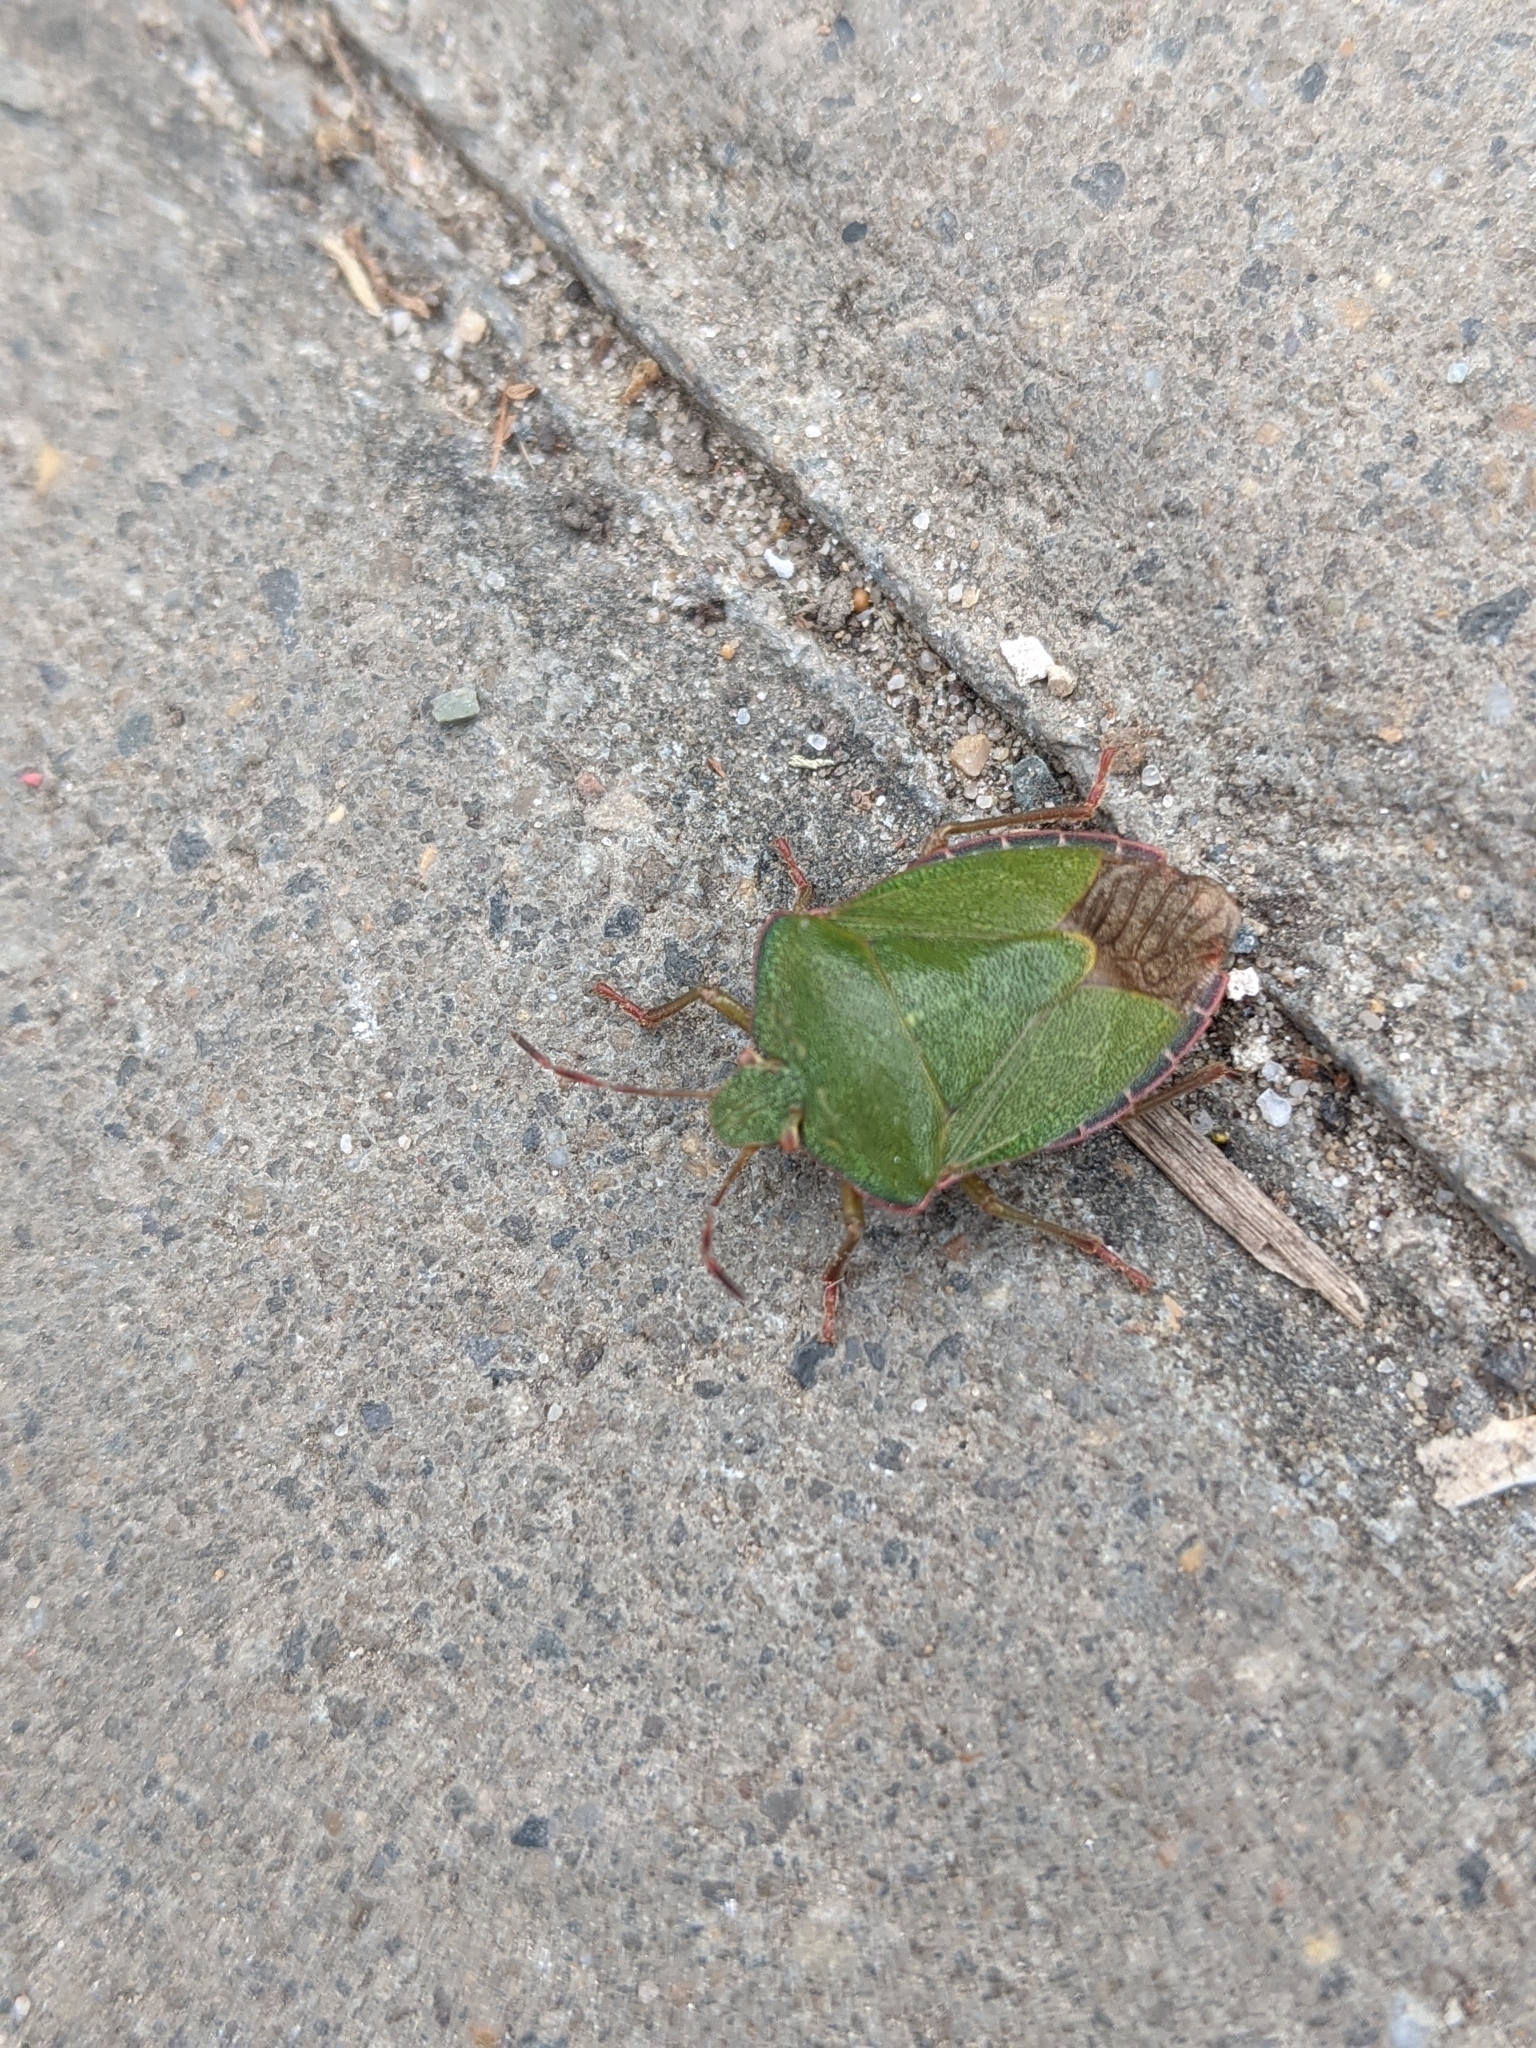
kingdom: Animalia
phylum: Arthropoda
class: Insecta
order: Hemiptera
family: Pentatomidae
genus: Palomena
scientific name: Palomena prasina
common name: Green shieldbug
